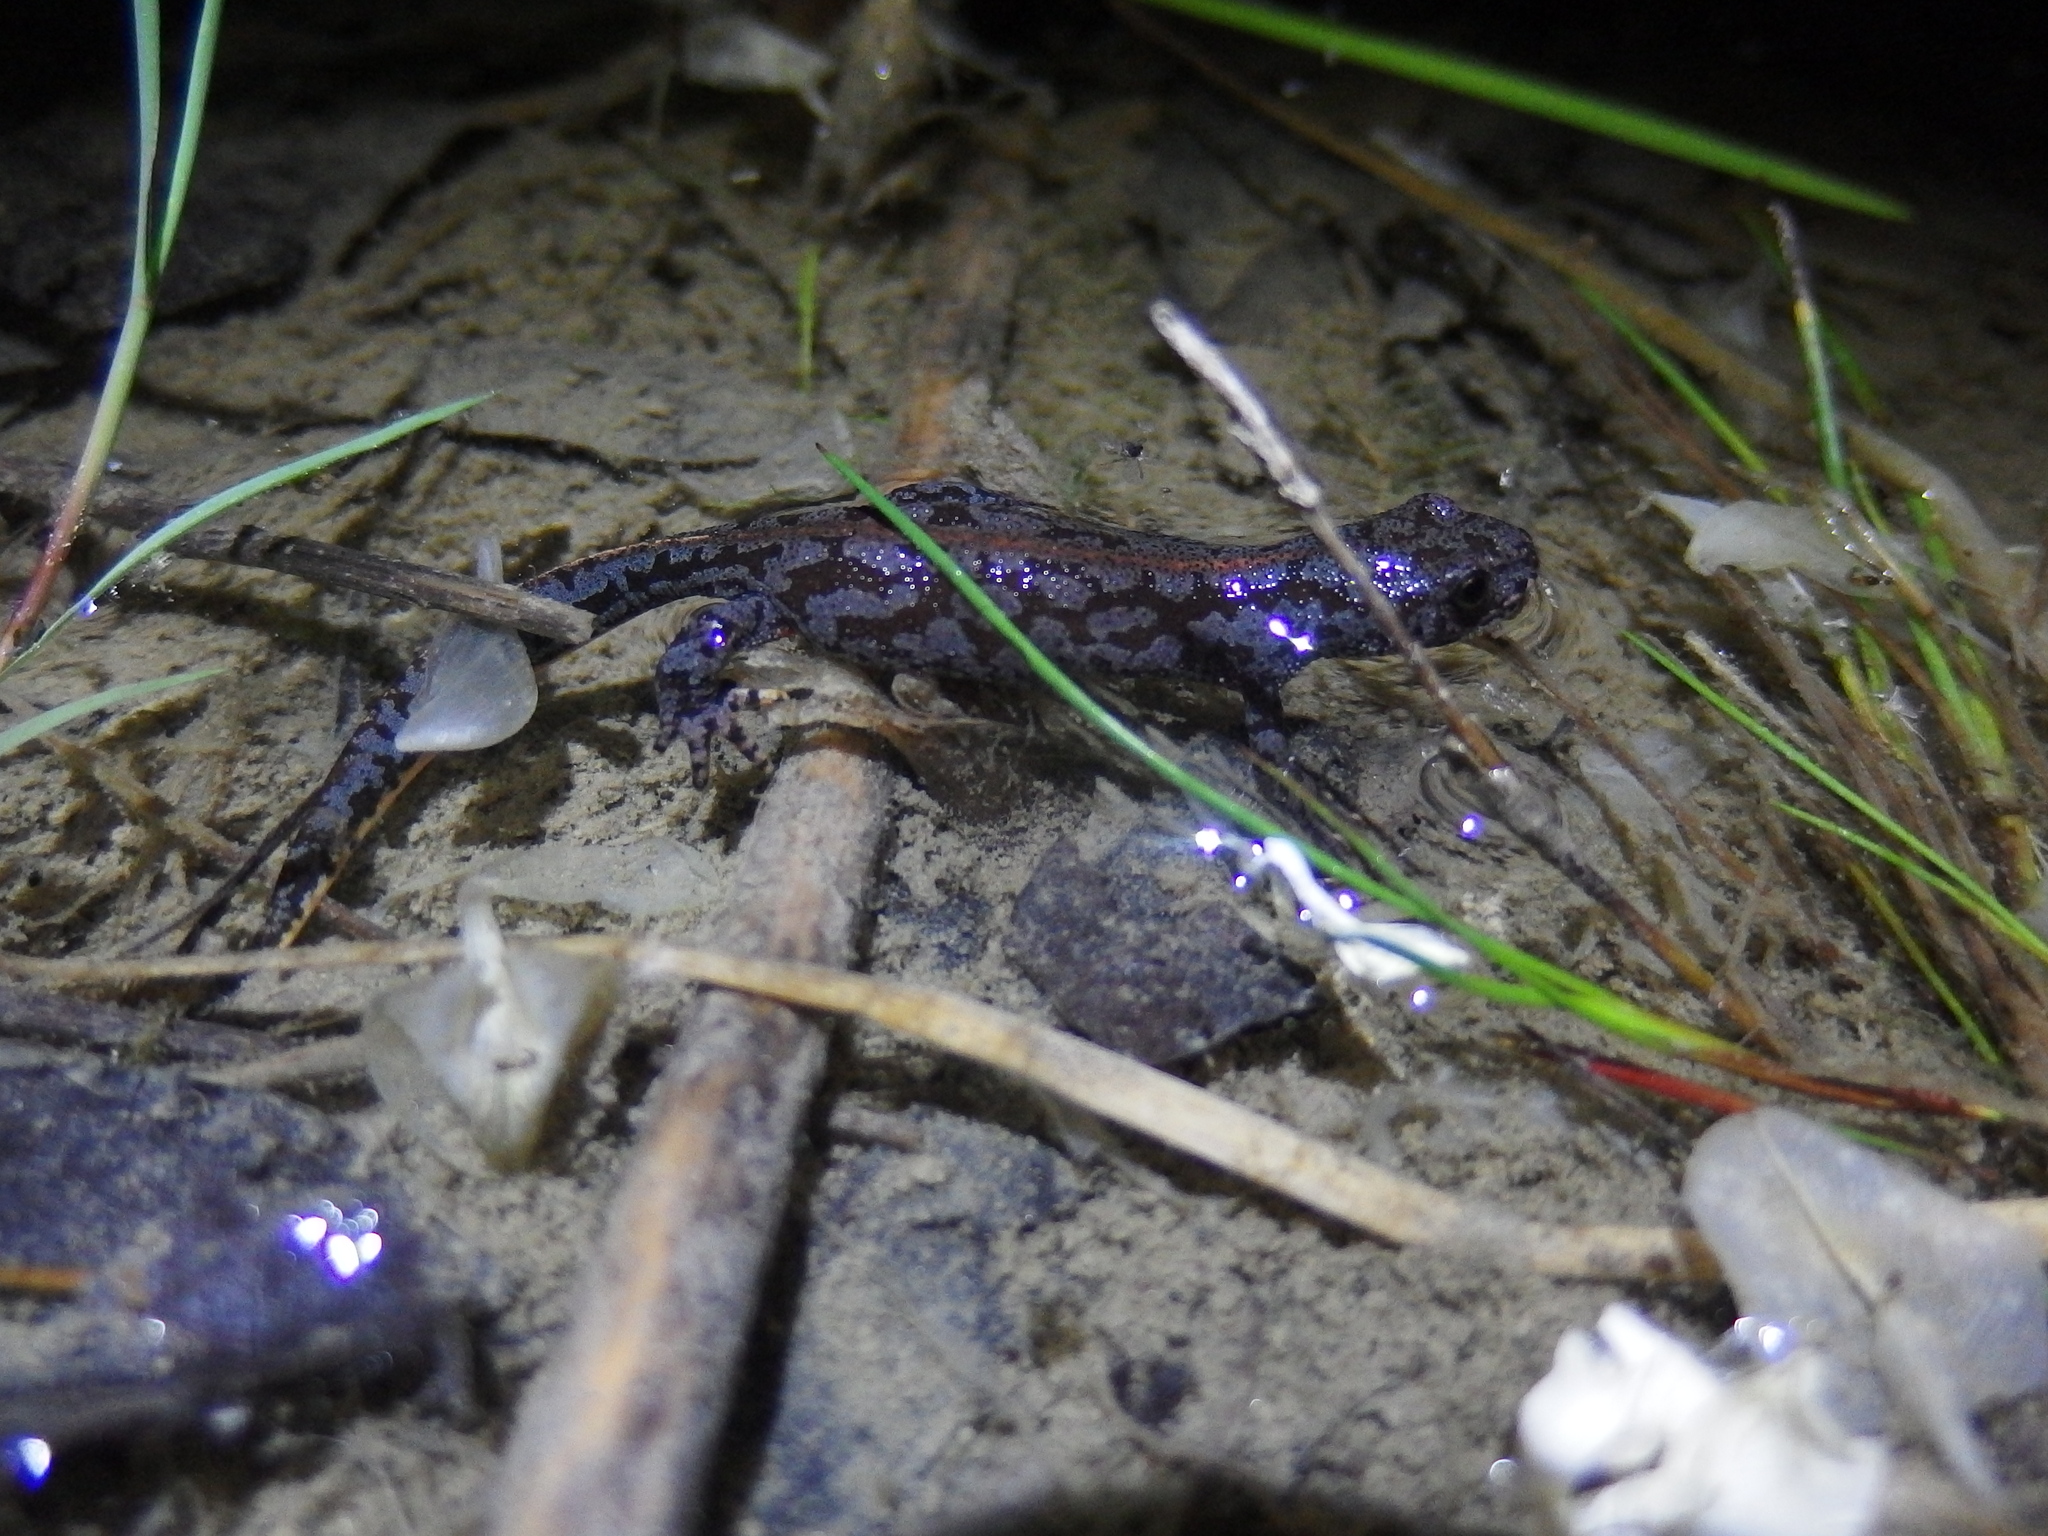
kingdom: Animalia
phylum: Chordata
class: Amphibia
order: Caudata
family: Salamandridae
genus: Ichthyosaura
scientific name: Ichthyosaura alpestris
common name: Alpine newt
